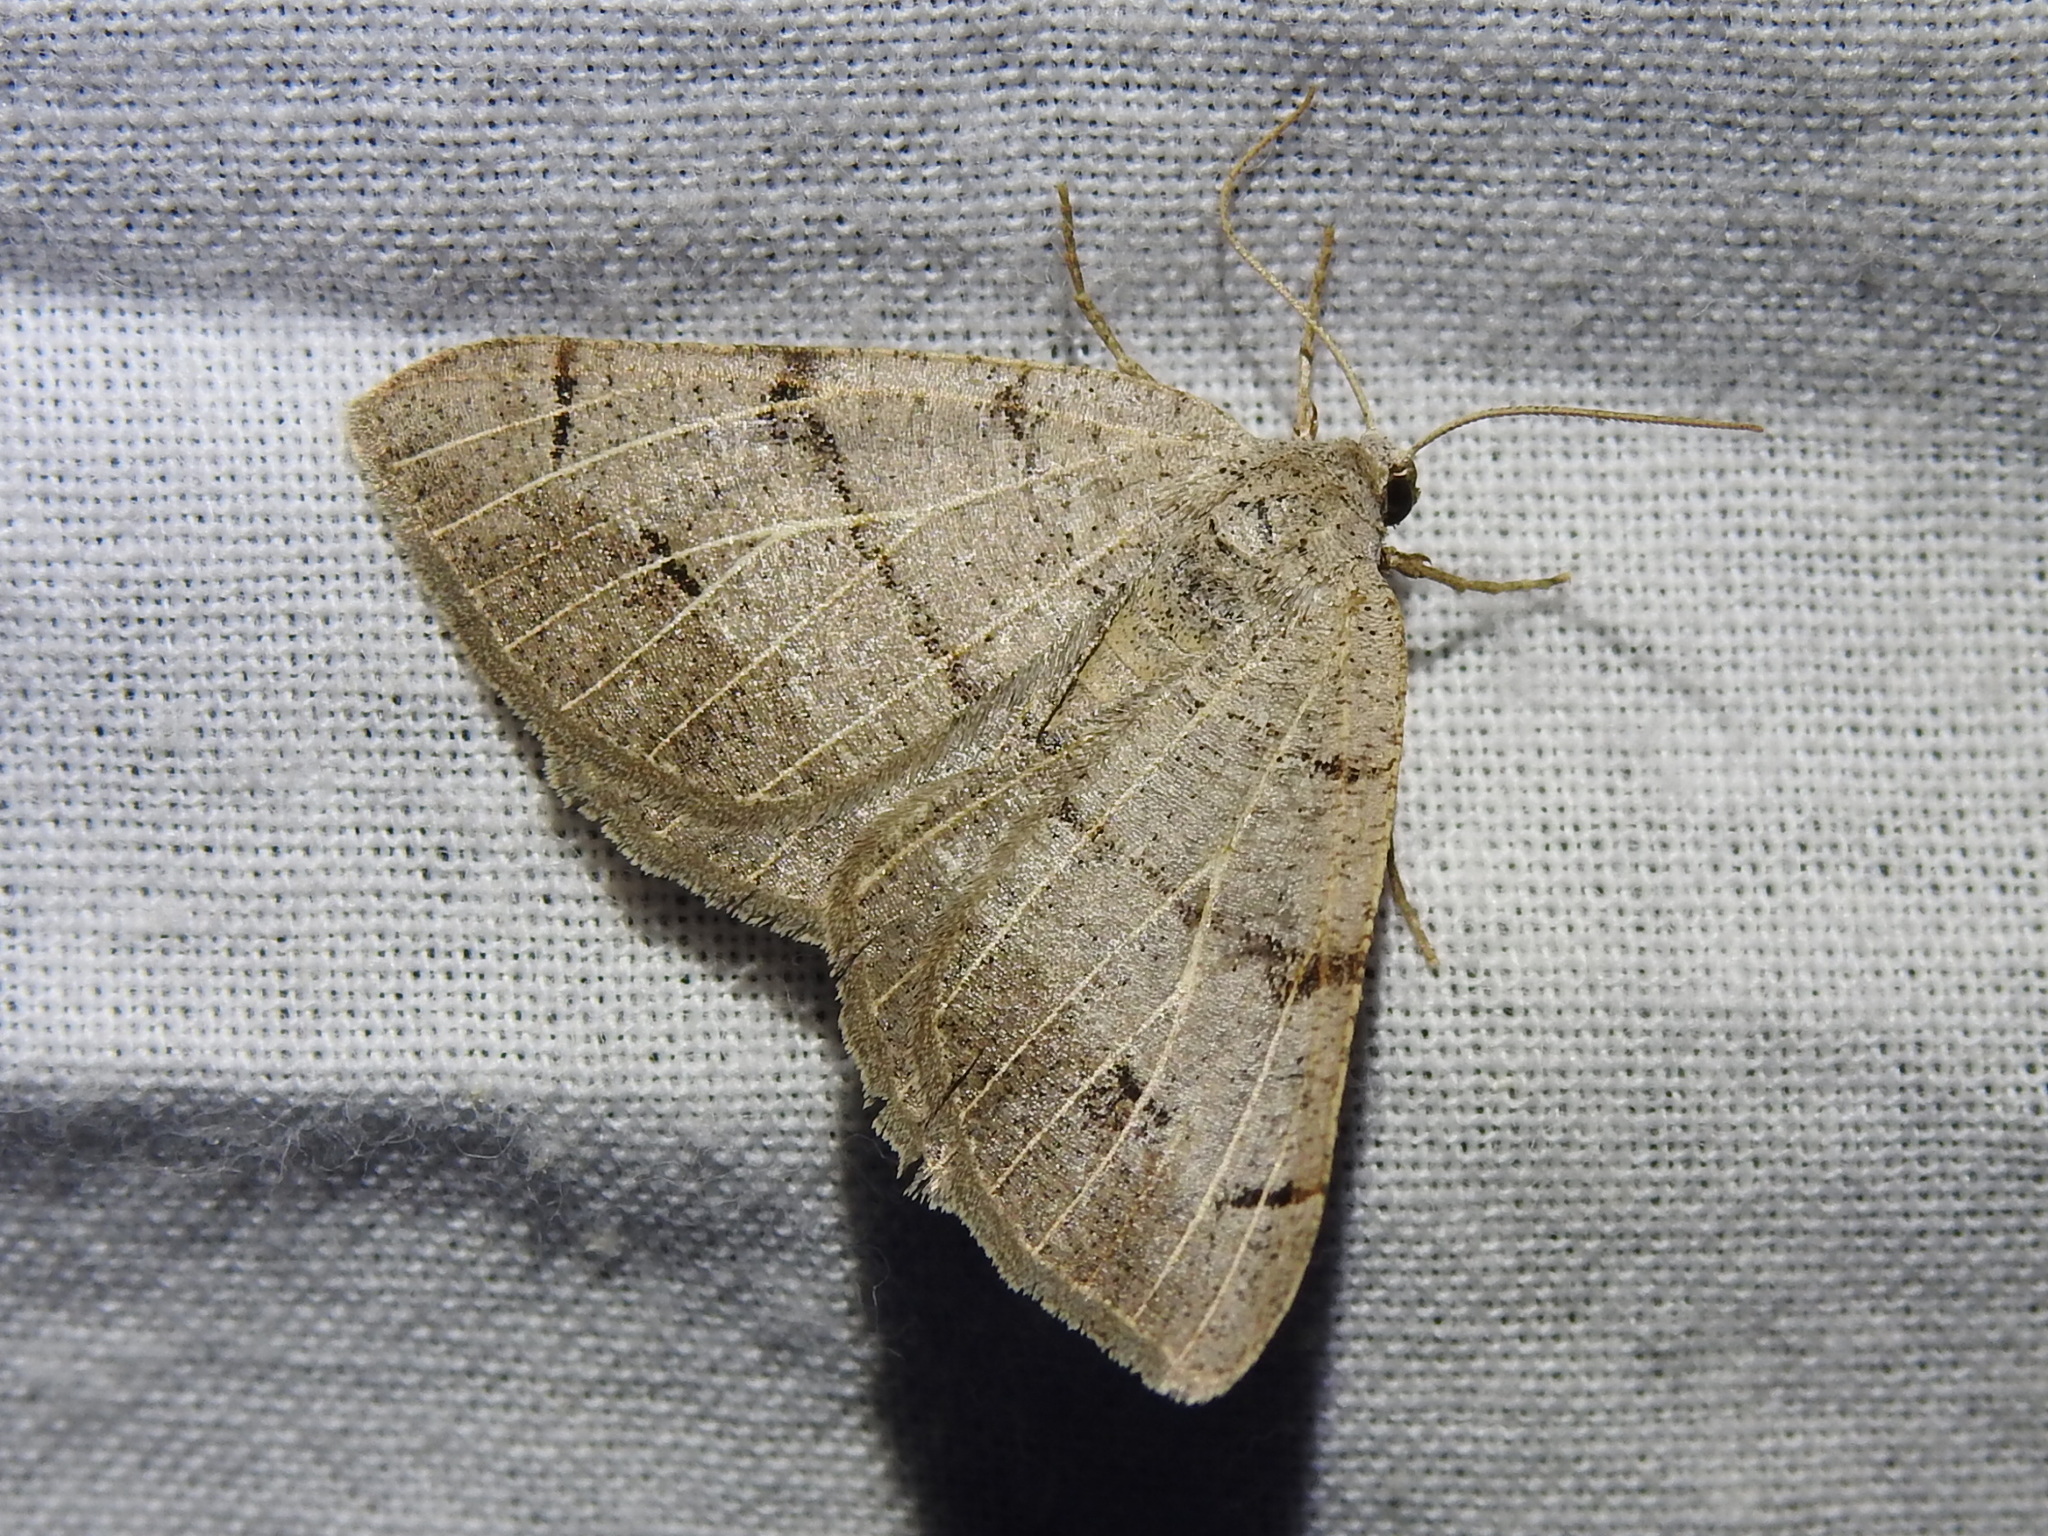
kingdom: Animalia
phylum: Arthropoda
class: Insecta
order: Lepidoptera
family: Geometridae
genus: Isturgia
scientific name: Isturgia dislocaria
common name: Pale-viened enconista
